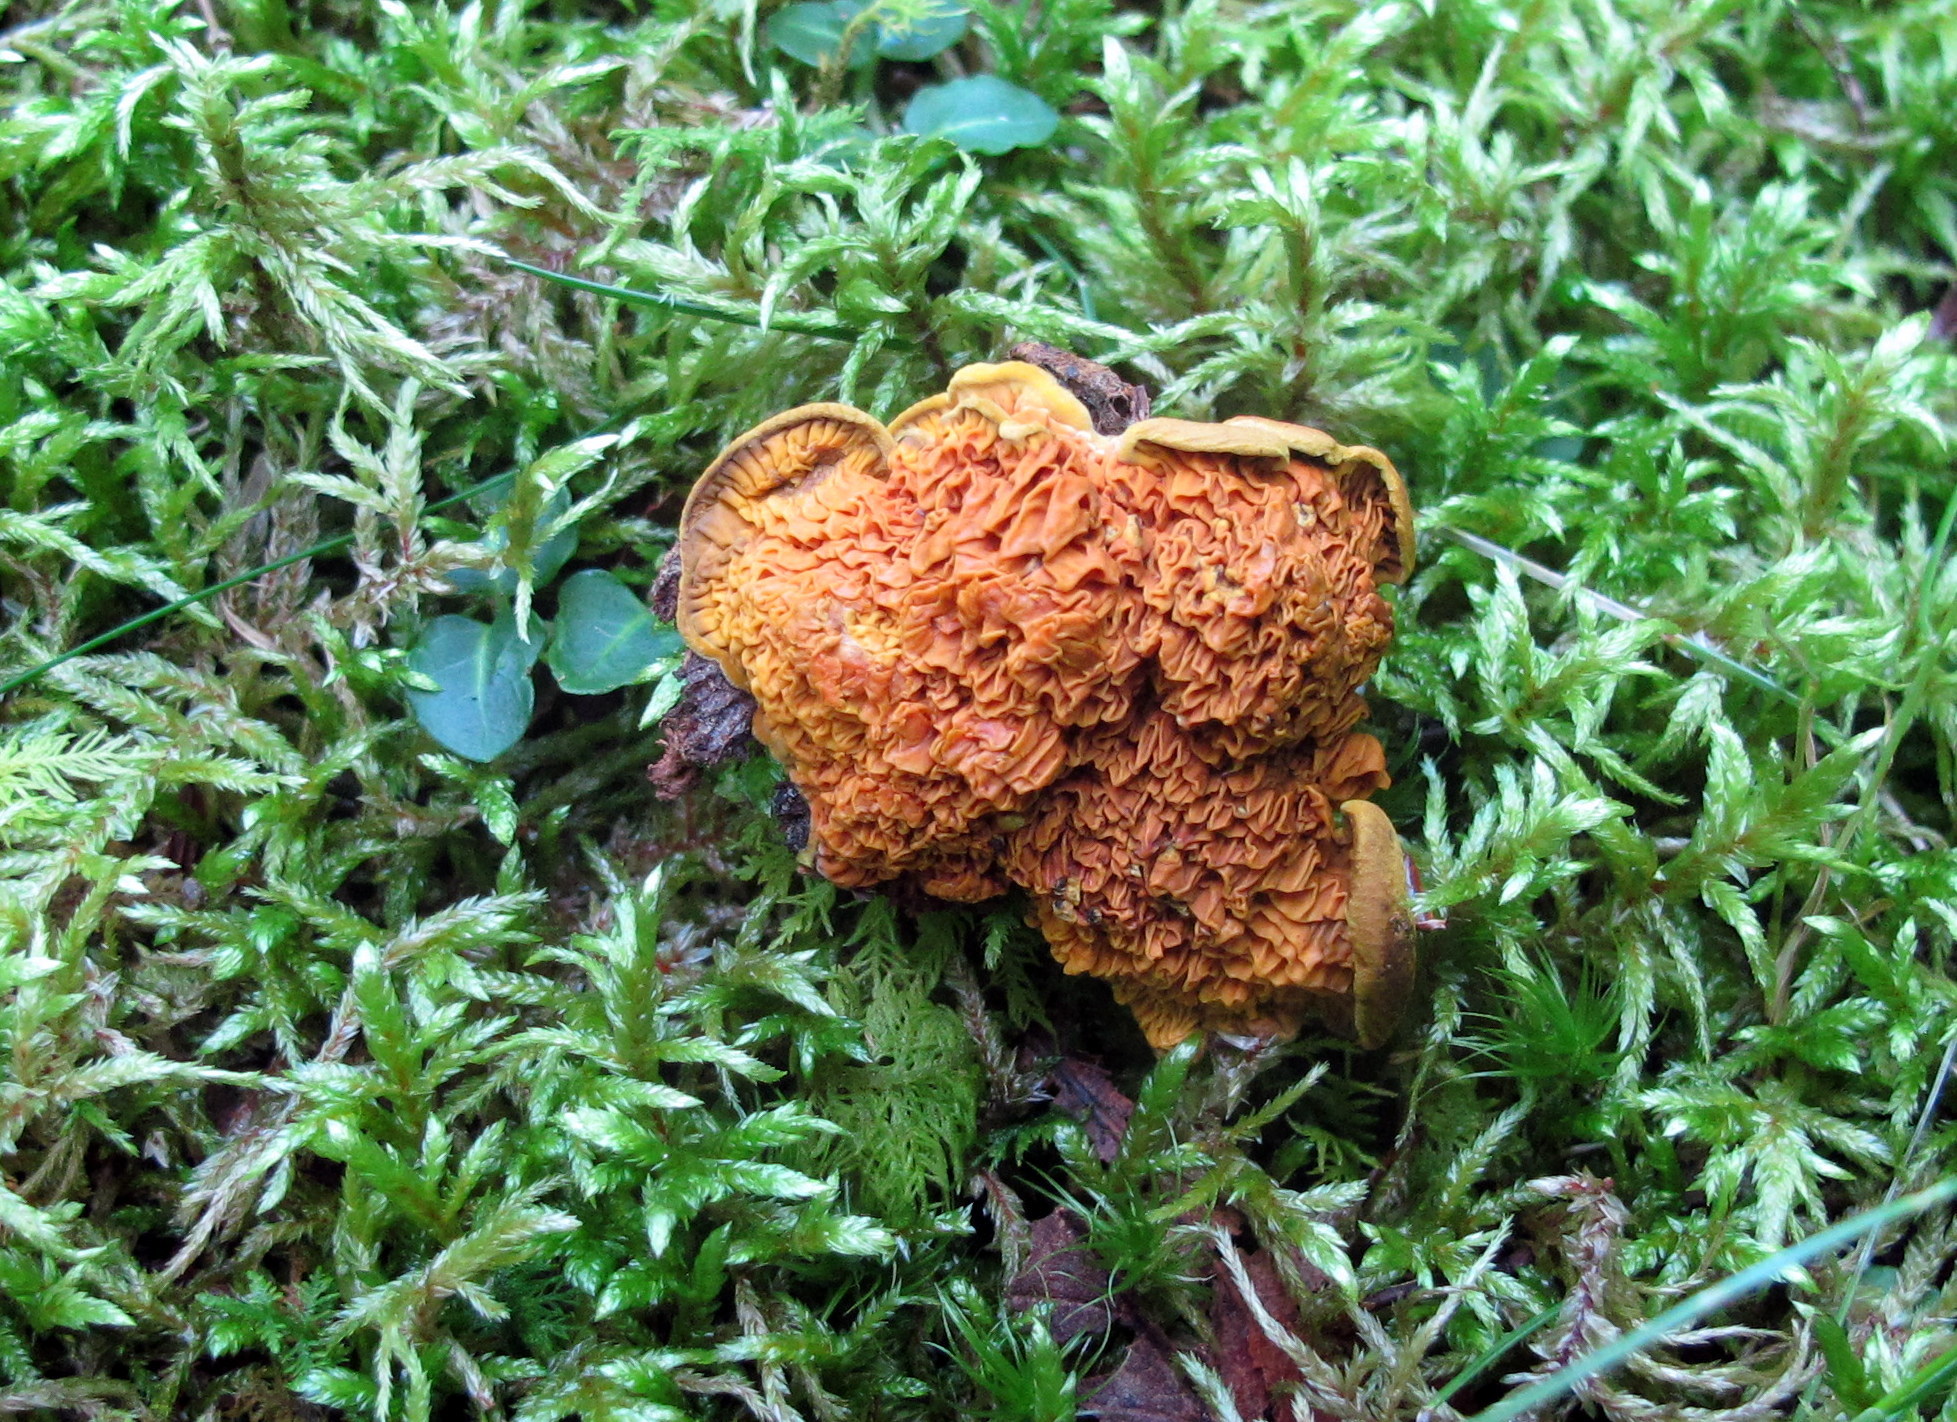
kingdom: Fungi
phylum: Basidiomycota
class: Agaricomycetes
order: Boletales
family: Paxillaceae
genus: Meiorganum
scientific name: Meiorganum curtisii
